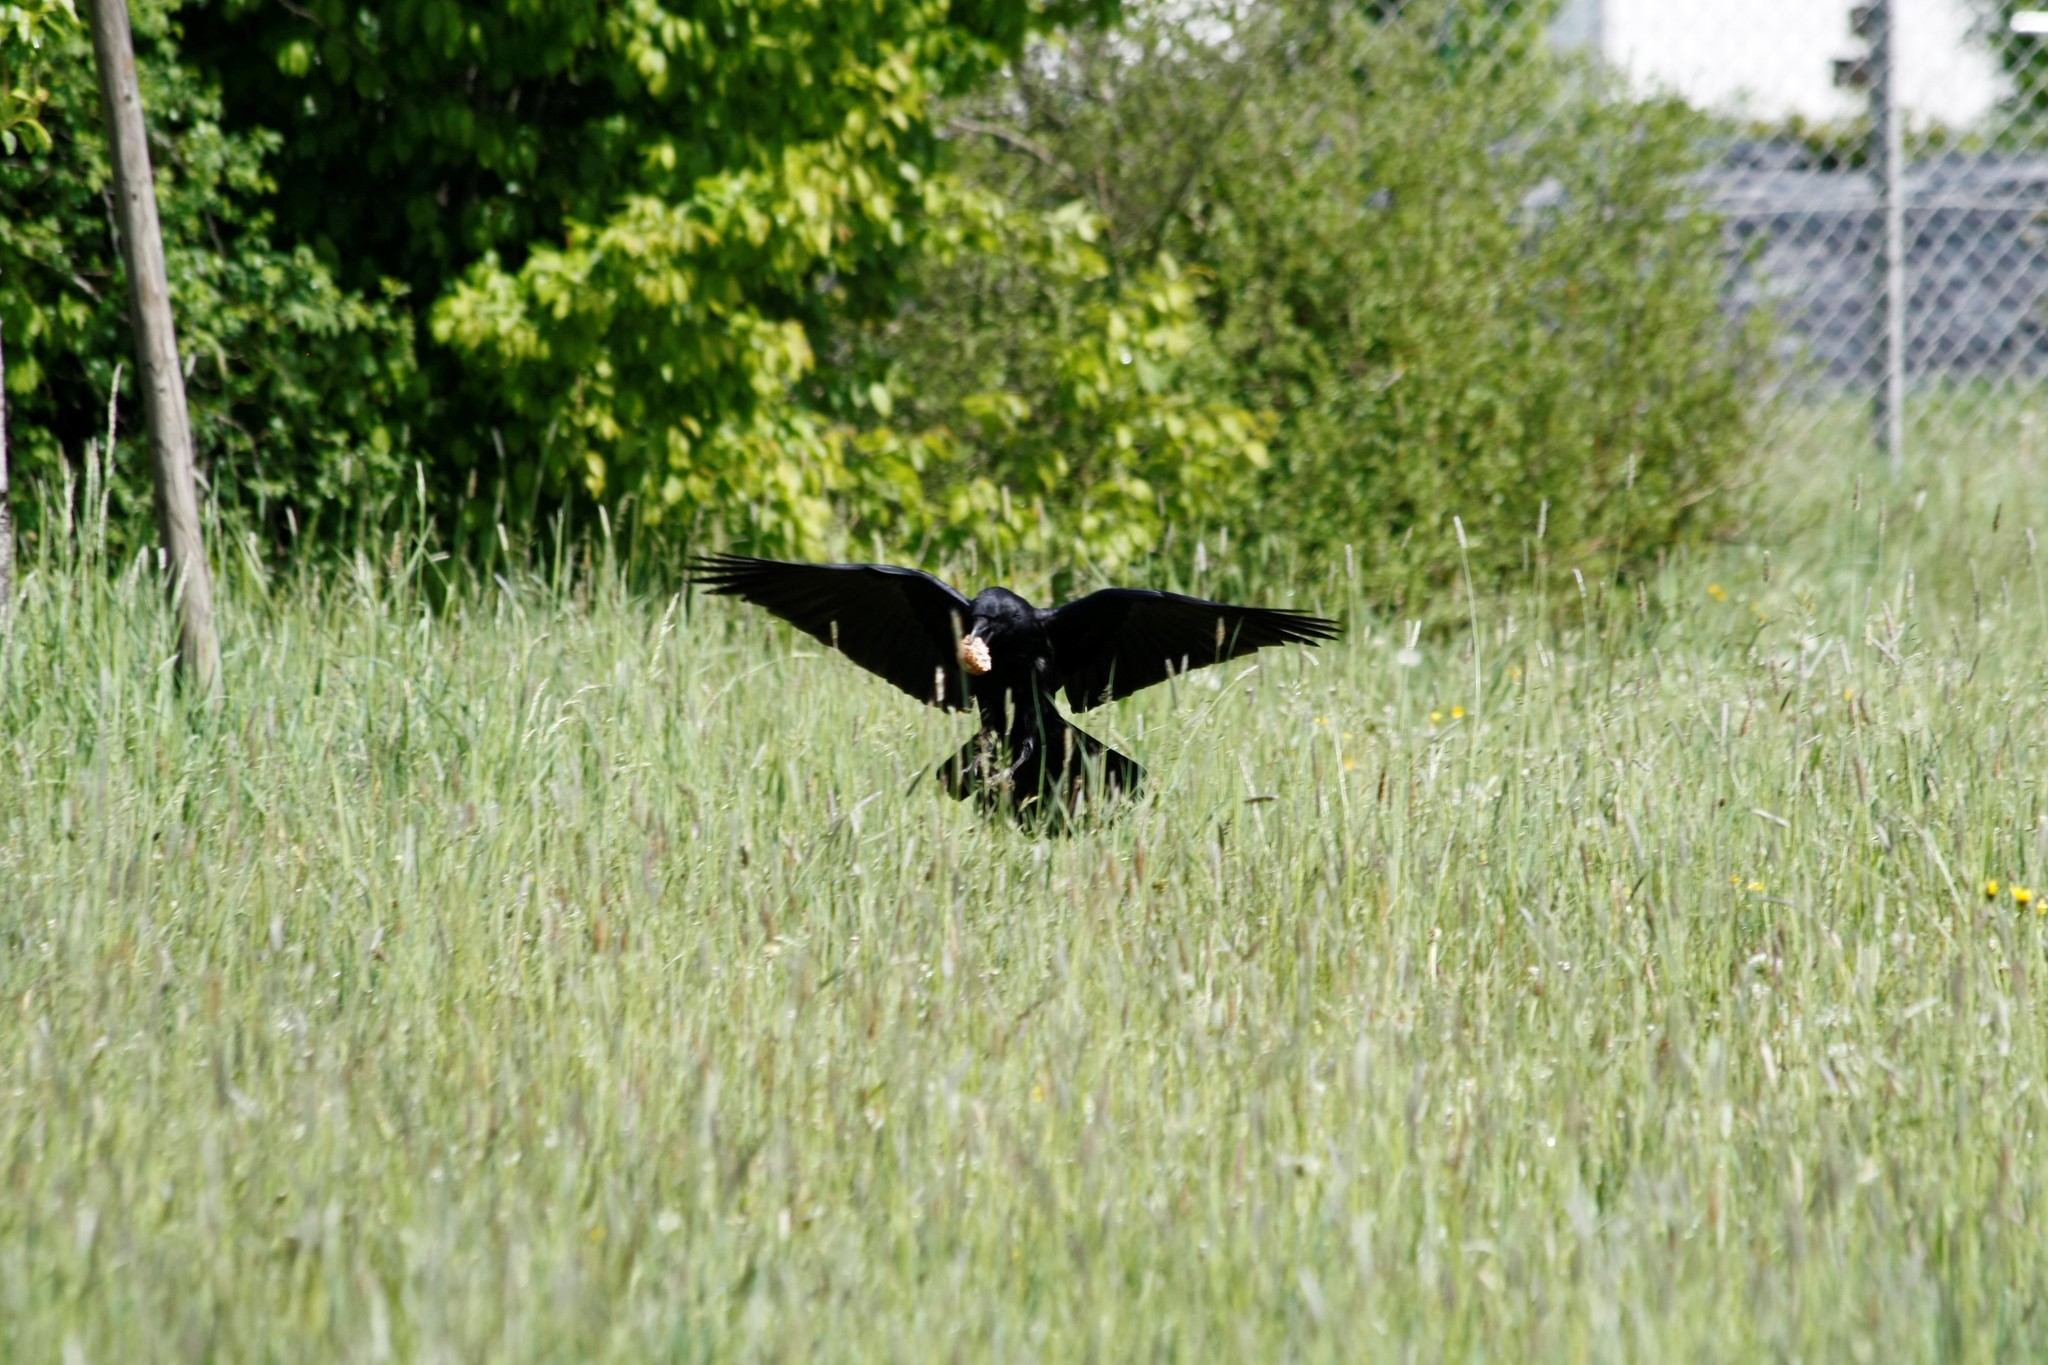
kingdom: Animalia
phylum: Chordata
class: Aves
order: Passeriformes
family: Corvidae
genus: Corvus
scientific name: Corvus corone
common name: Carrion crow
